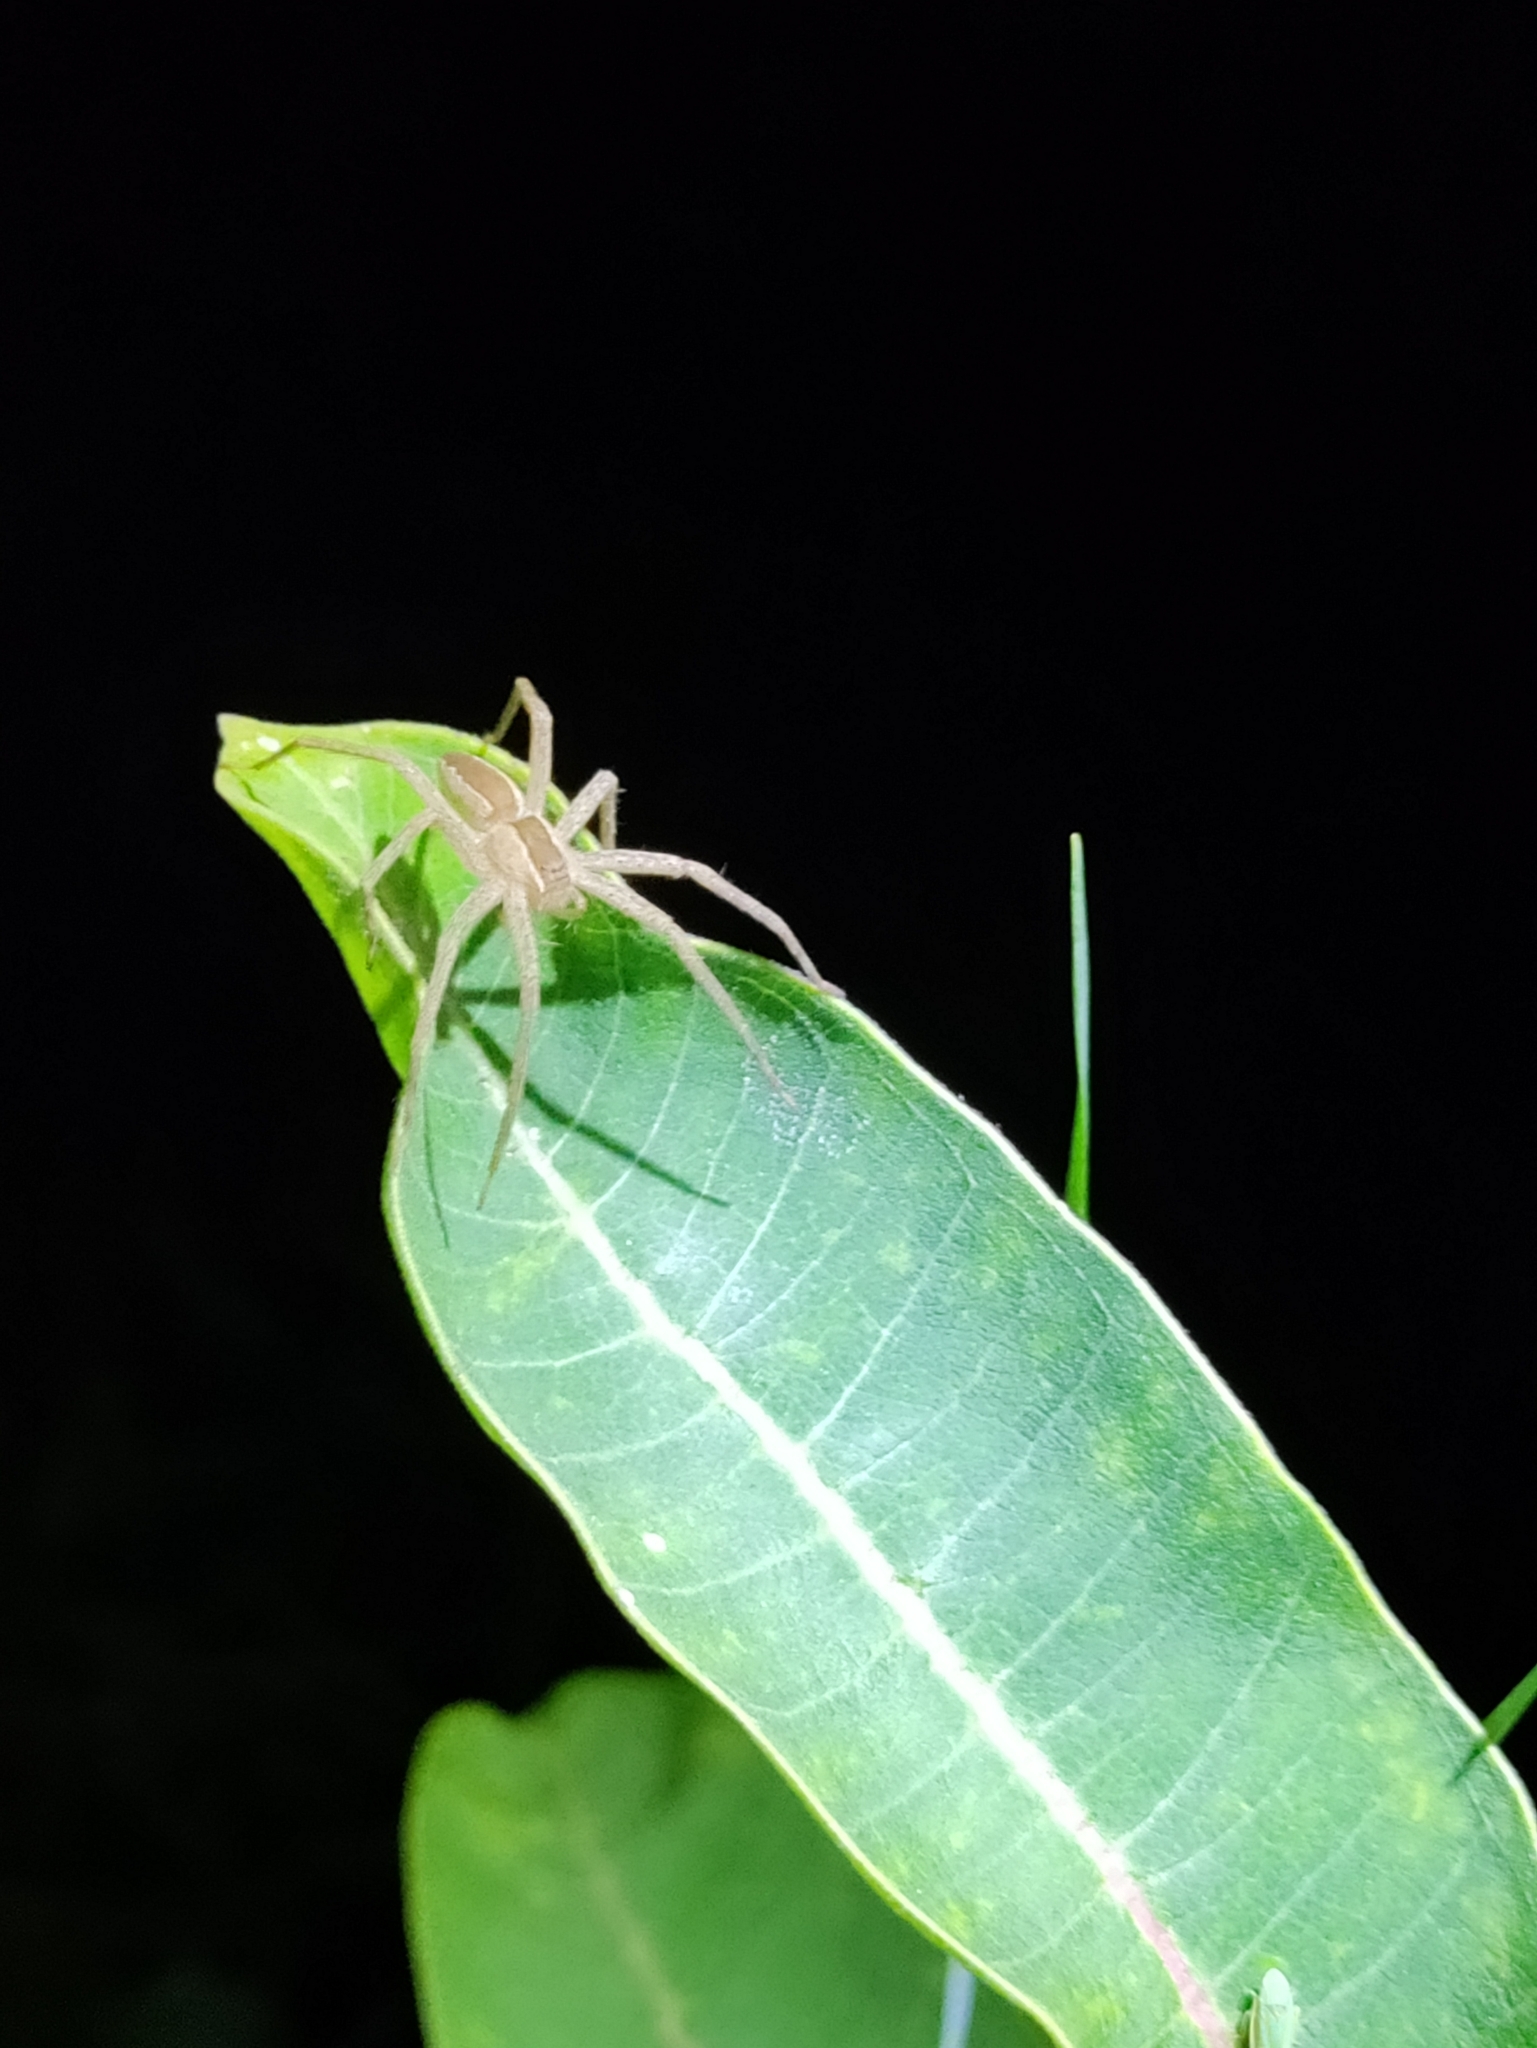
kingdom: Animalia
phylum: Arthropoda
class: Arachnida
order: Araneae
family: Pisauridae
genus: Pisaurina
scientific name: Pisaurina mira
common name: American nursery web spider
